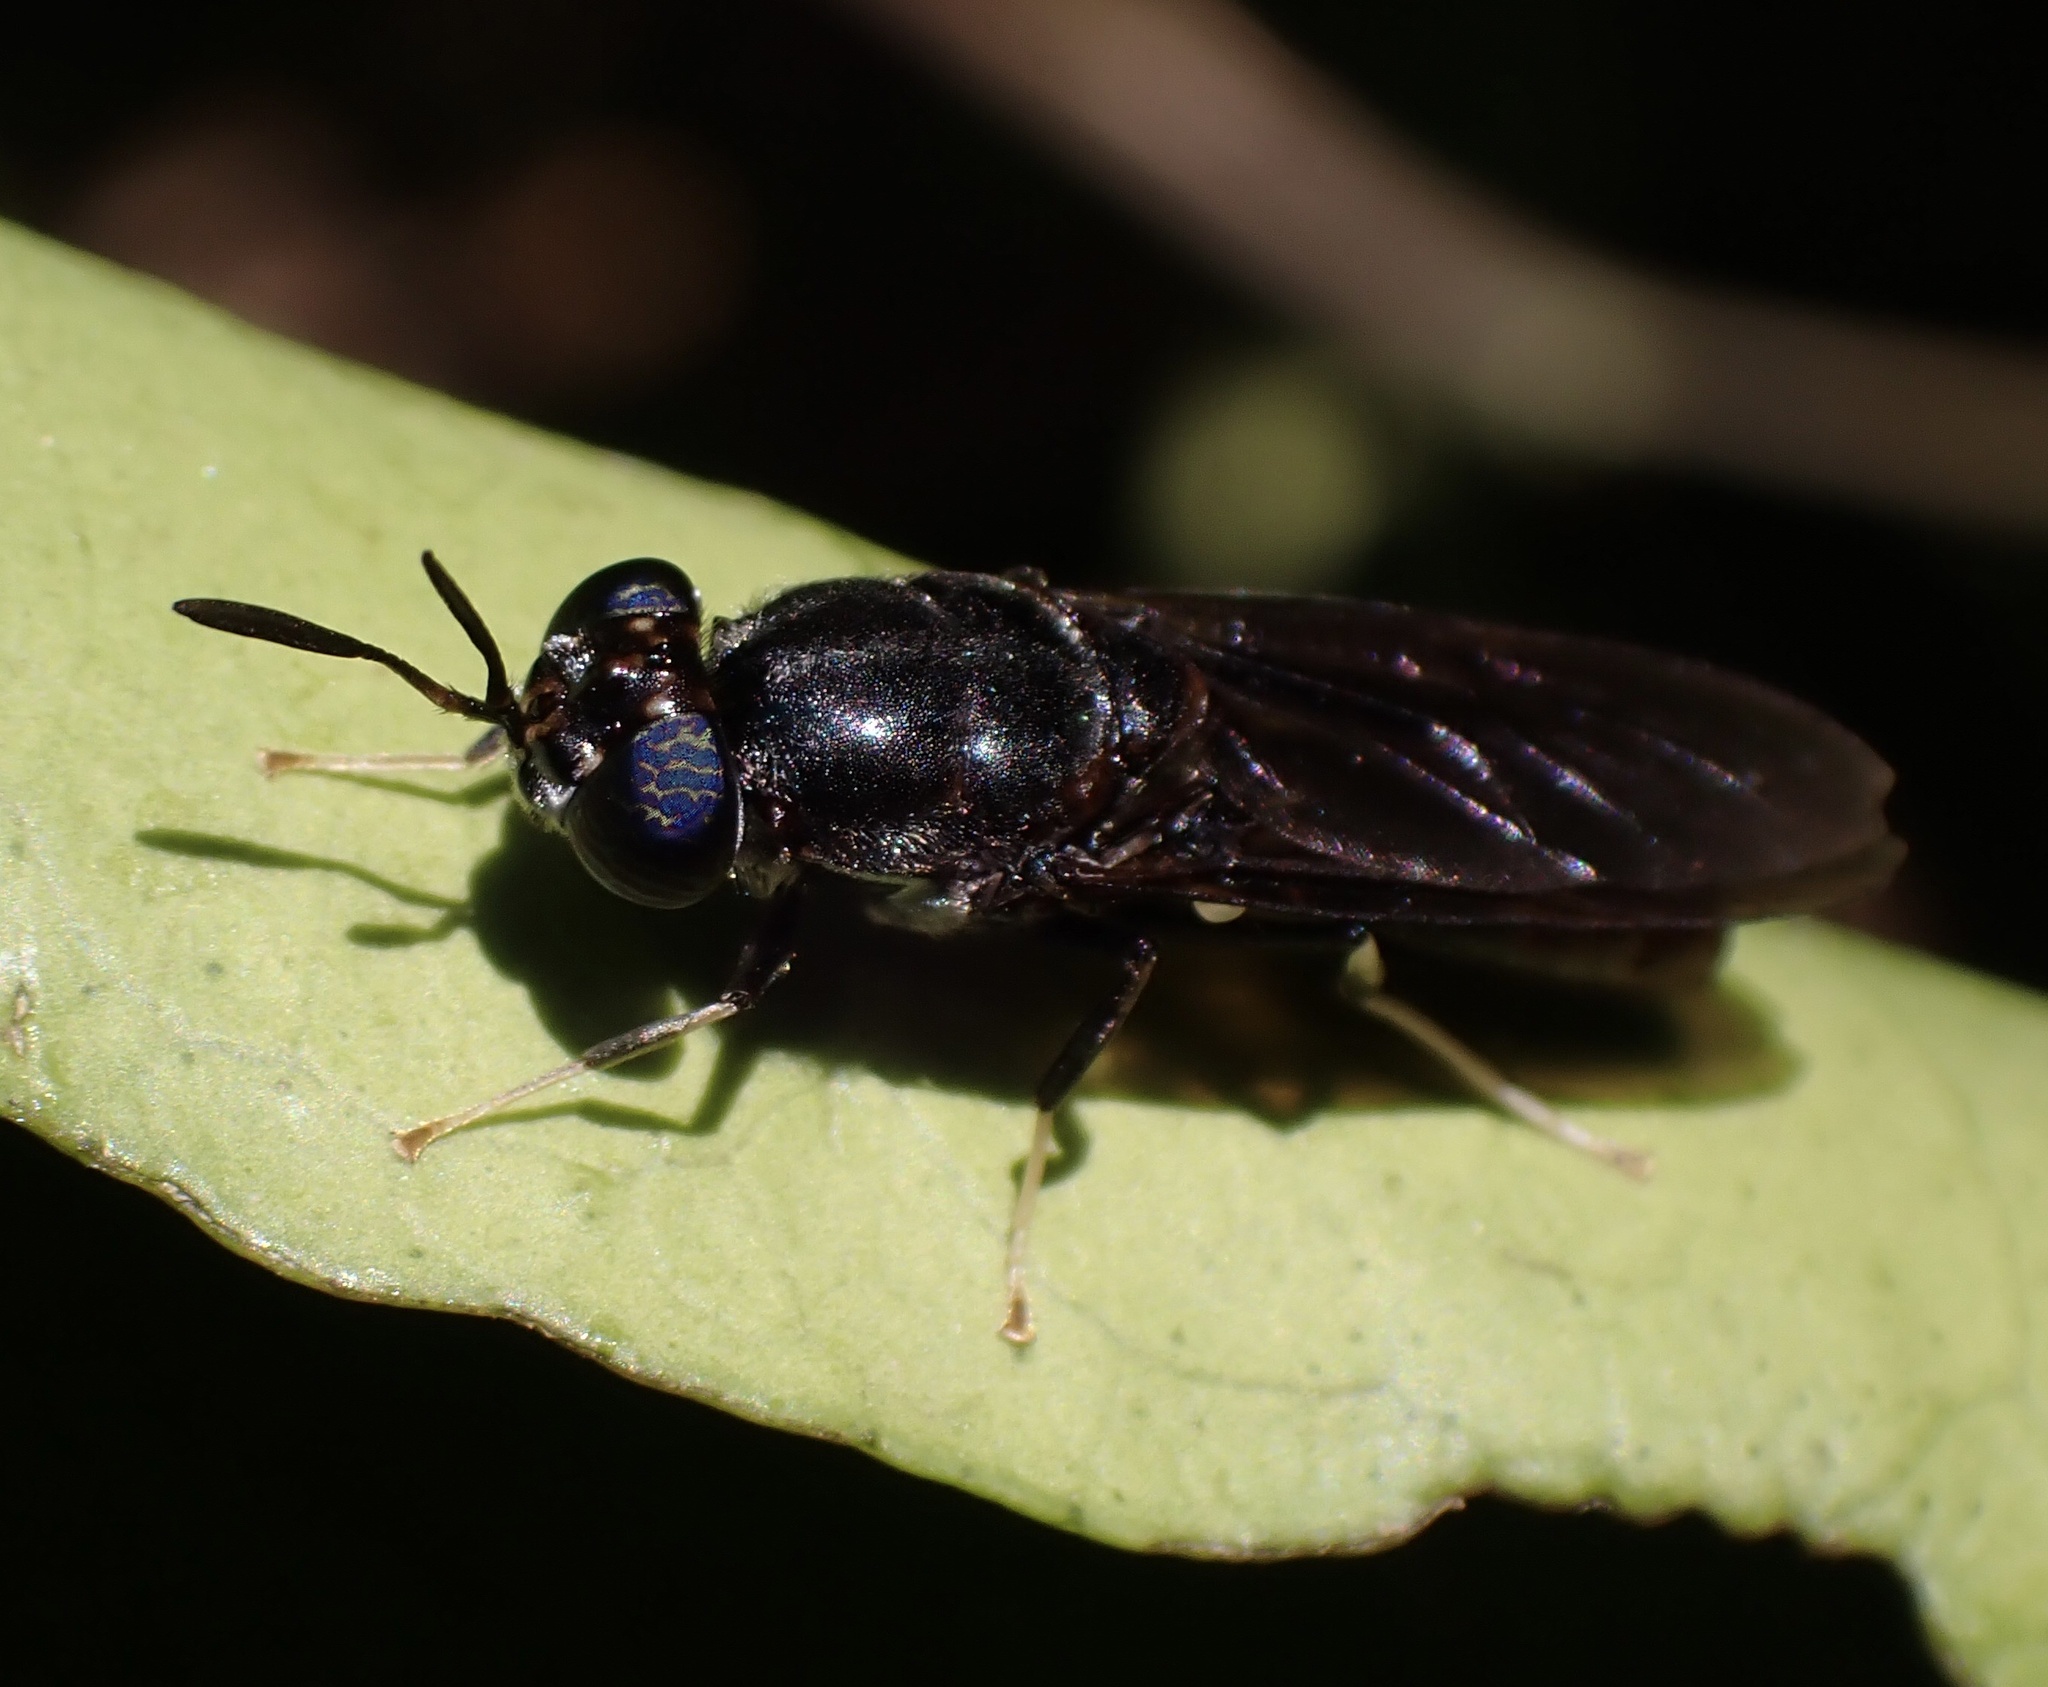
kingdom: Animalia
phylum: Arthropoda
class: Insecta
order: Diptera
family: Stratiomyidae
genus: Hermetia
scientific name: Hermetia illucens
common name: Black soldier fly
